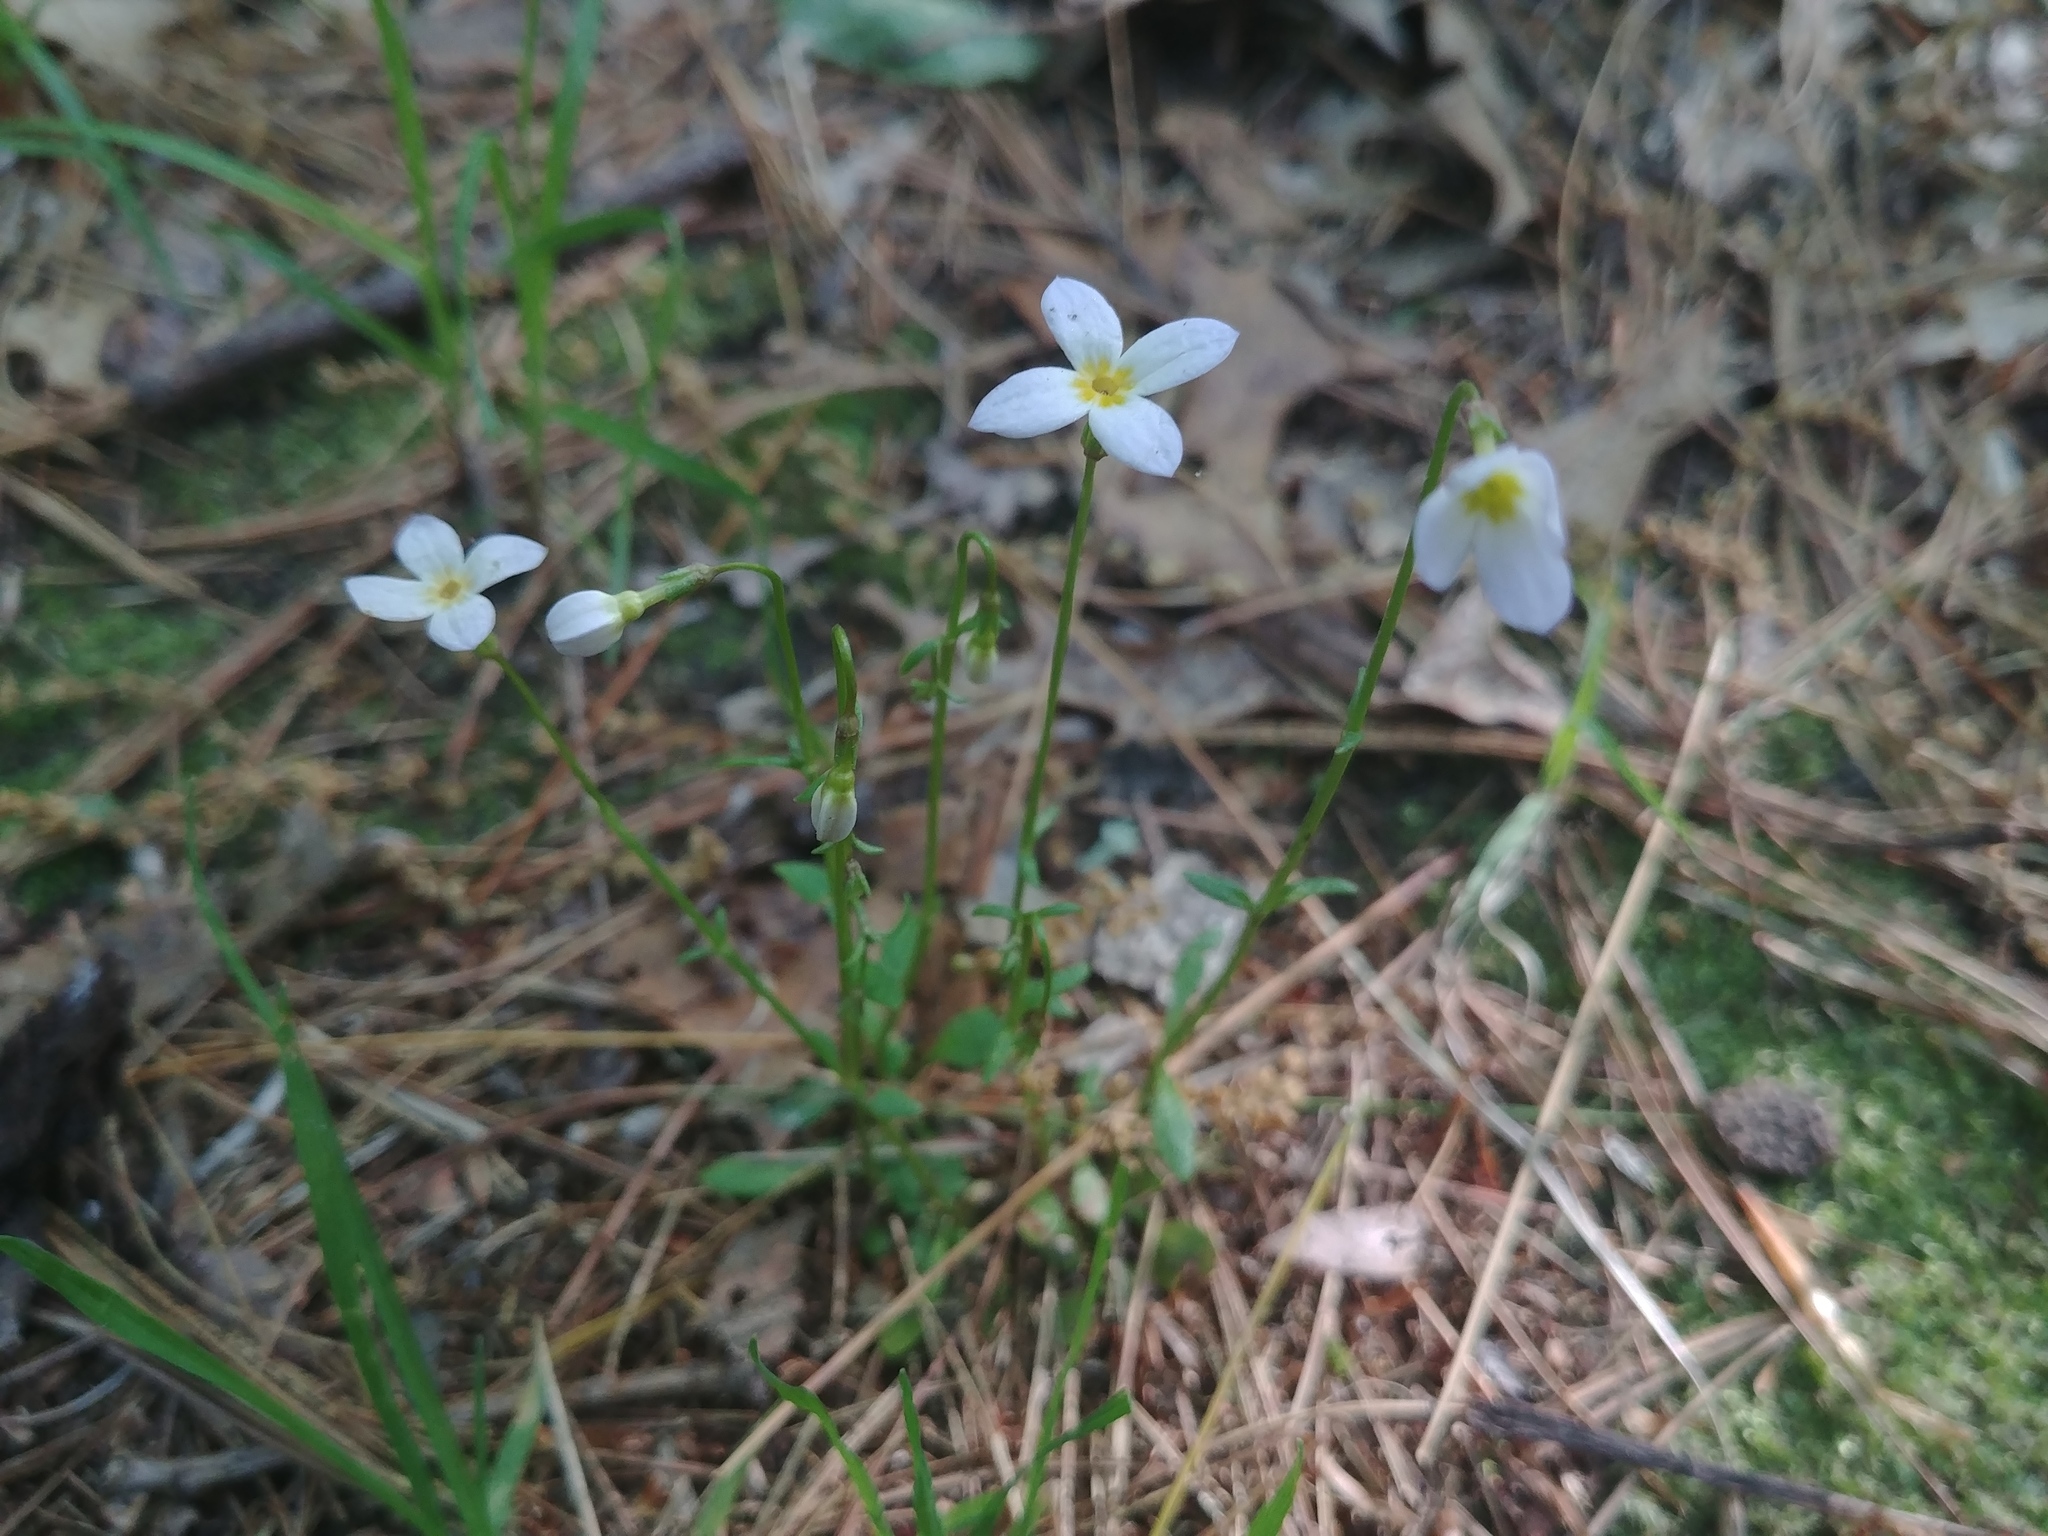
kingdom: Plantae
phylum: Tracheophyta
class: Magnoliopsida
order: Gentianales
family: Rubiaceae
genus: Houstonia
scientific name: Houstonia caerulea
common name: Bluets
